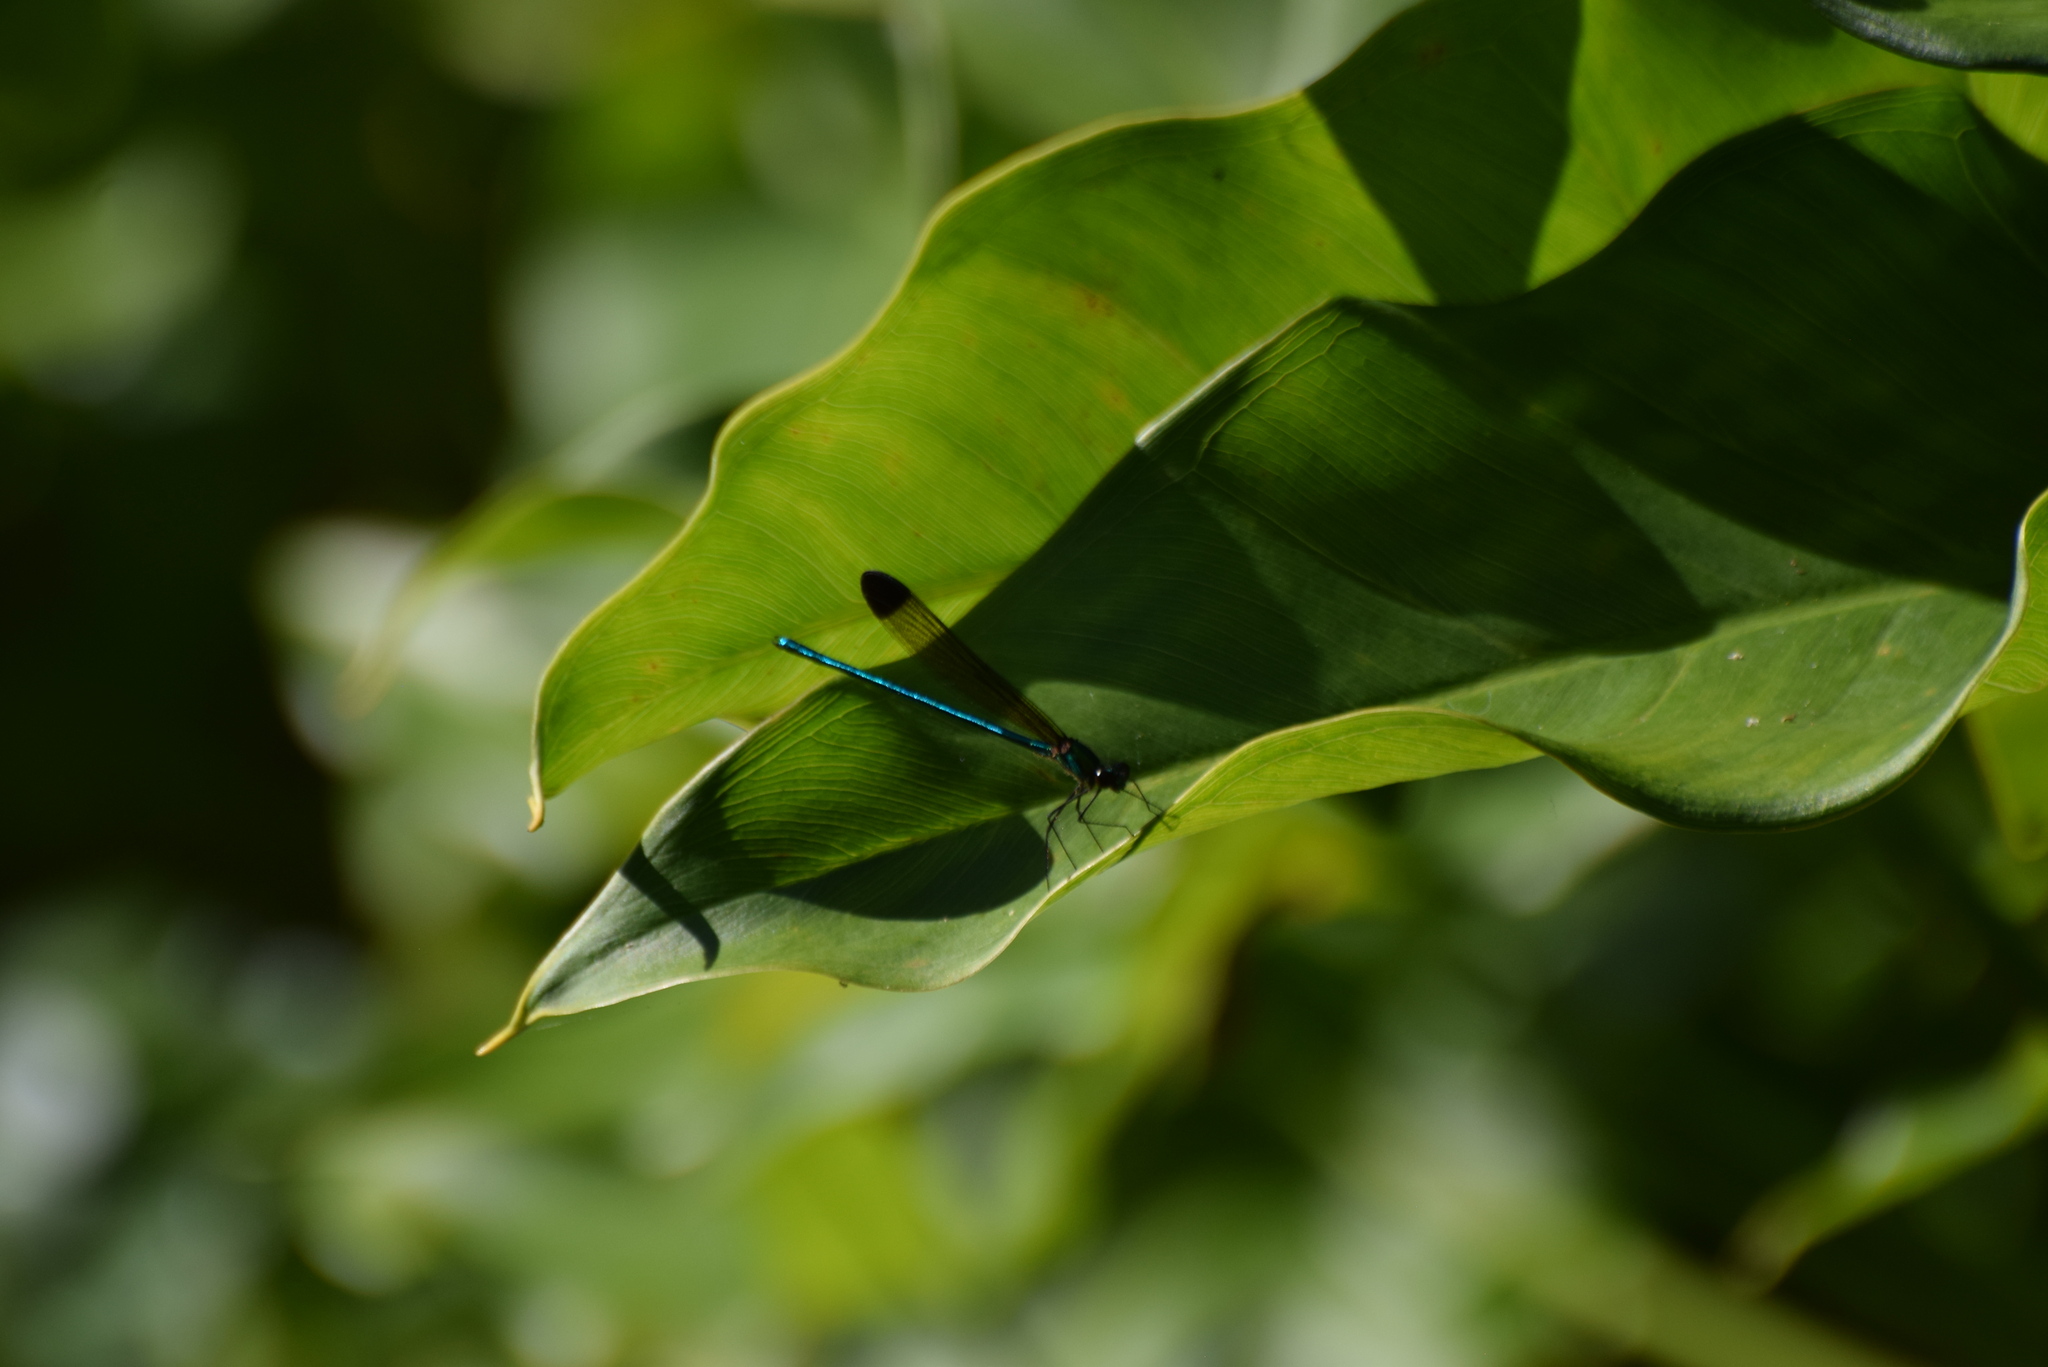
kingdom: Animalia
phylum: Arthropoda
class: Insecta
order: Odonata
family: Calopterygidae
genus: Calopteryx
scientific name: Calopteryx dimidiata
